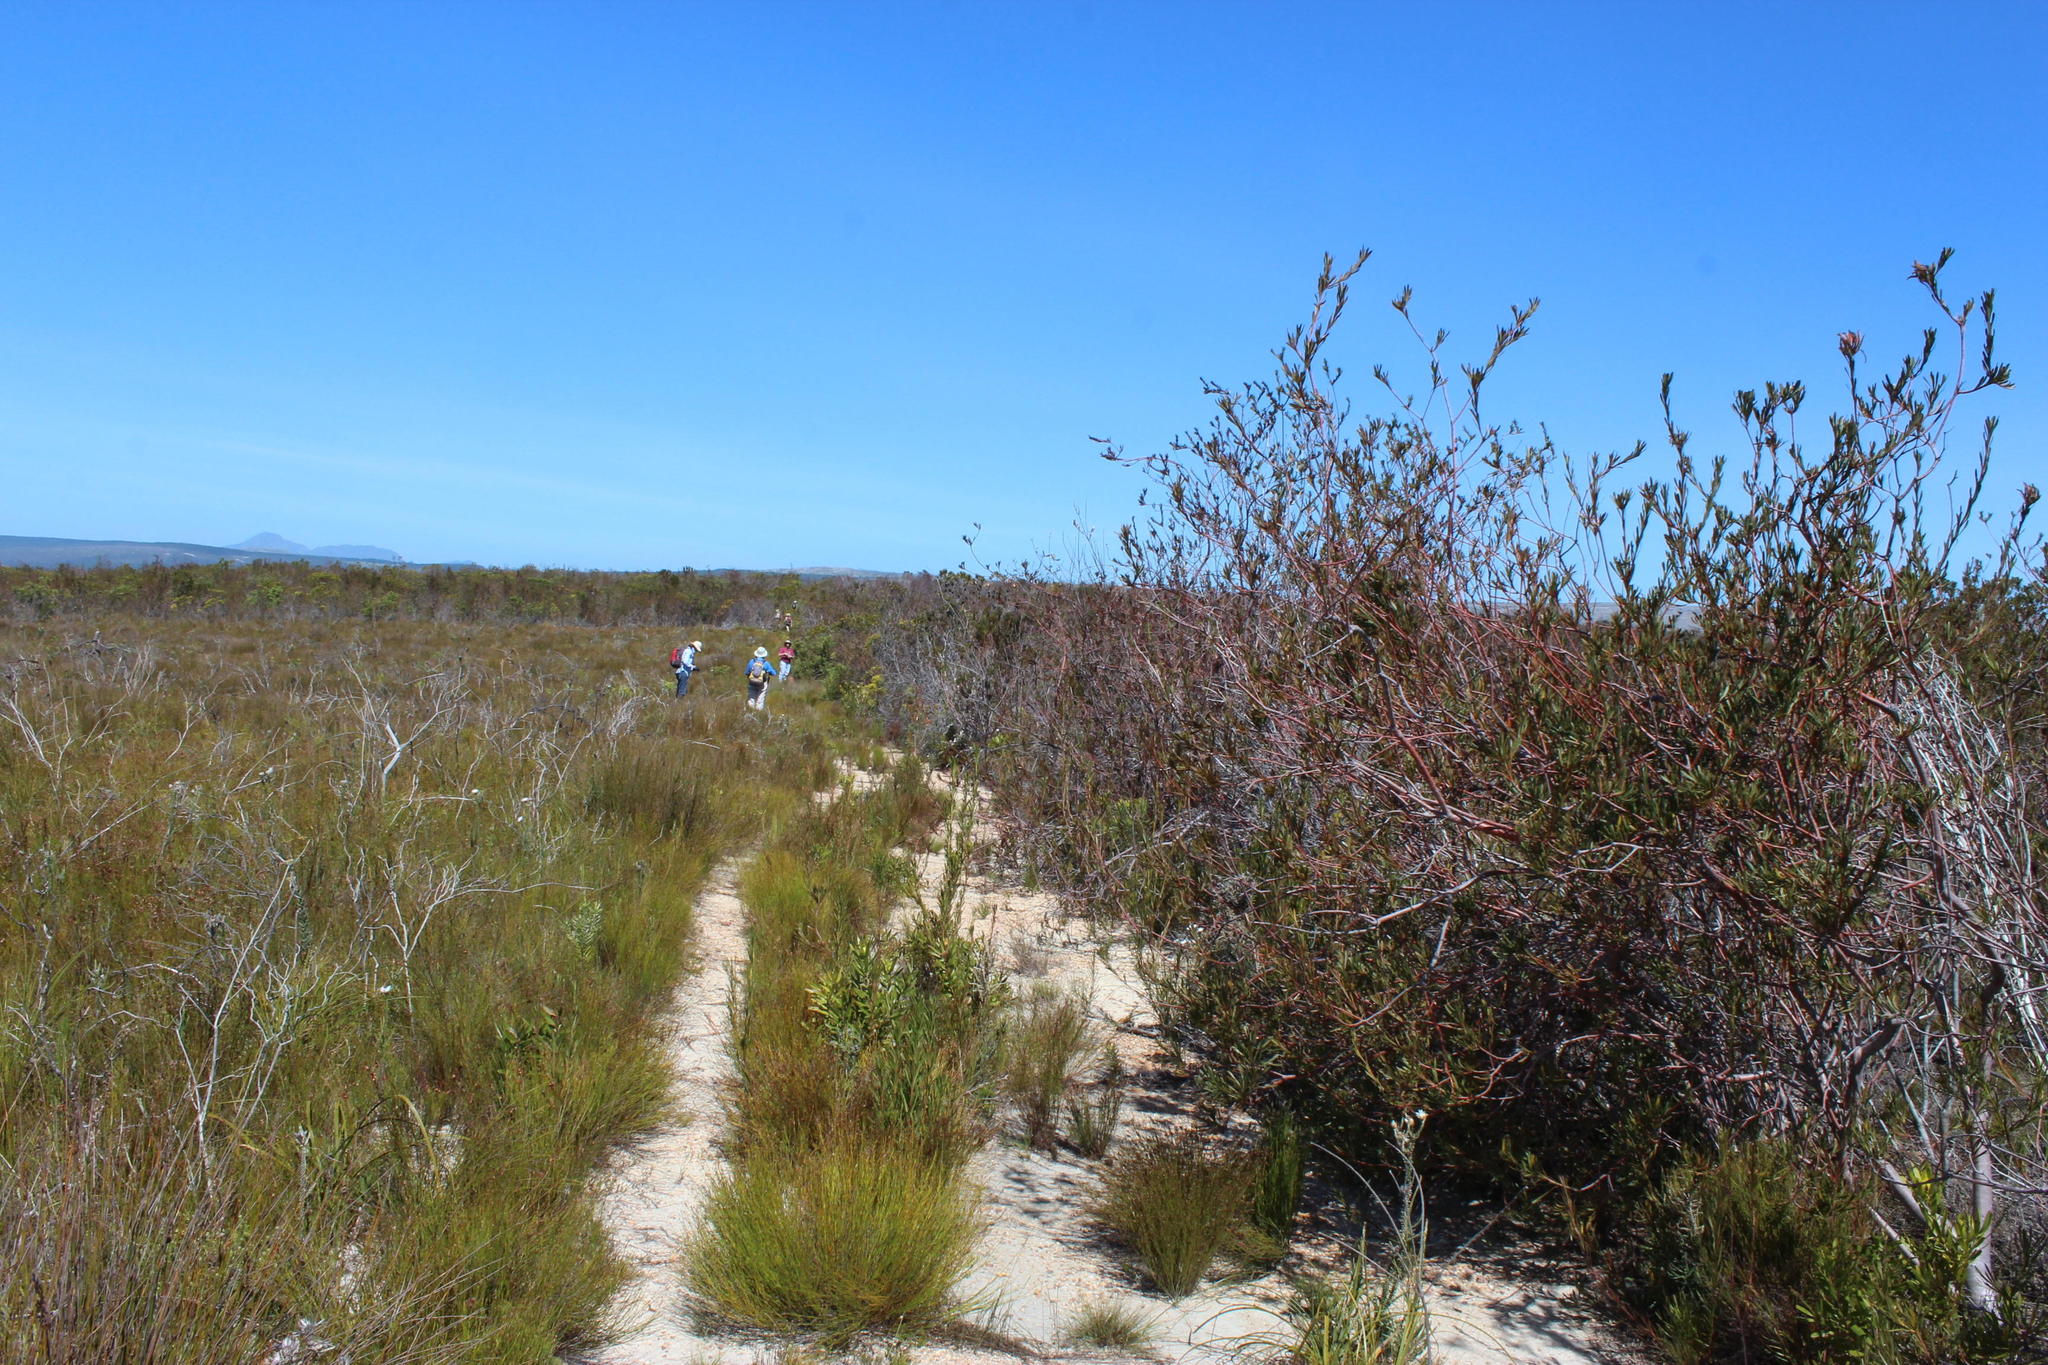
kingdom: Plantae
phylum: Tracheophyta
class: Magnoliopsida
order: Proteales
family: Proteaceae
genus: Aulax
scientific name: Aulax umbellata
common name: Broad-leaf featherbush
